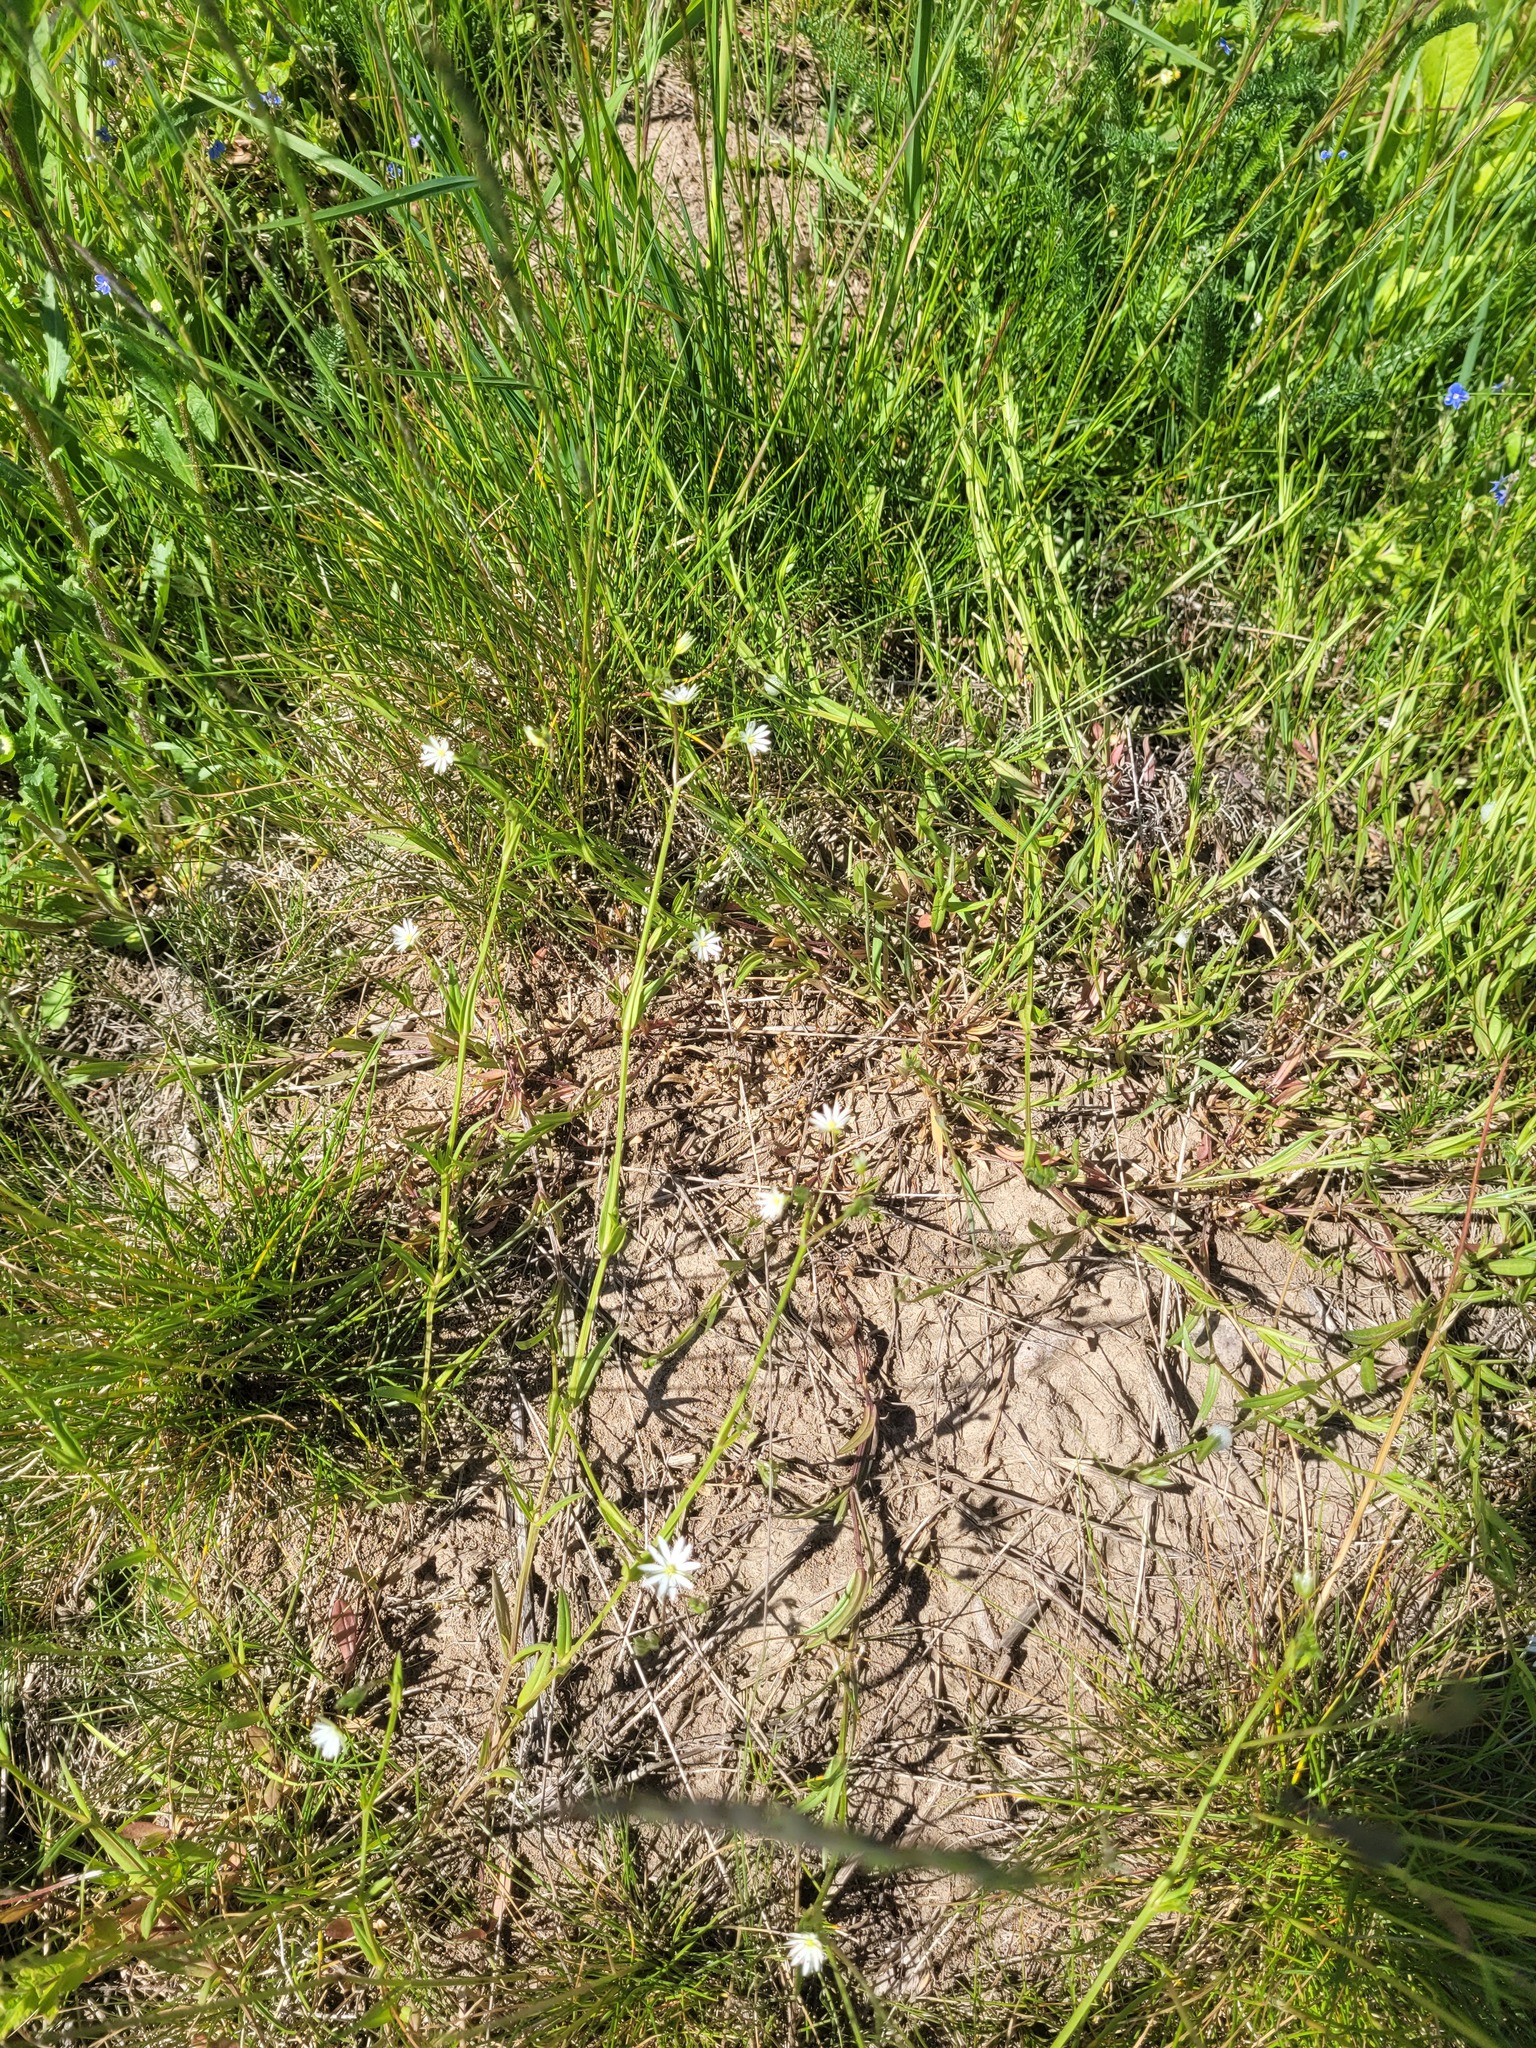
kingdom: Plantae
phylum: Tracheophyta
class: Magnoliopsida
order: Caryophyllales
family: Caryophyllaceae
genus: Stellaria
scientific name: Stellaria graminea
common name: Grass-like starwort
